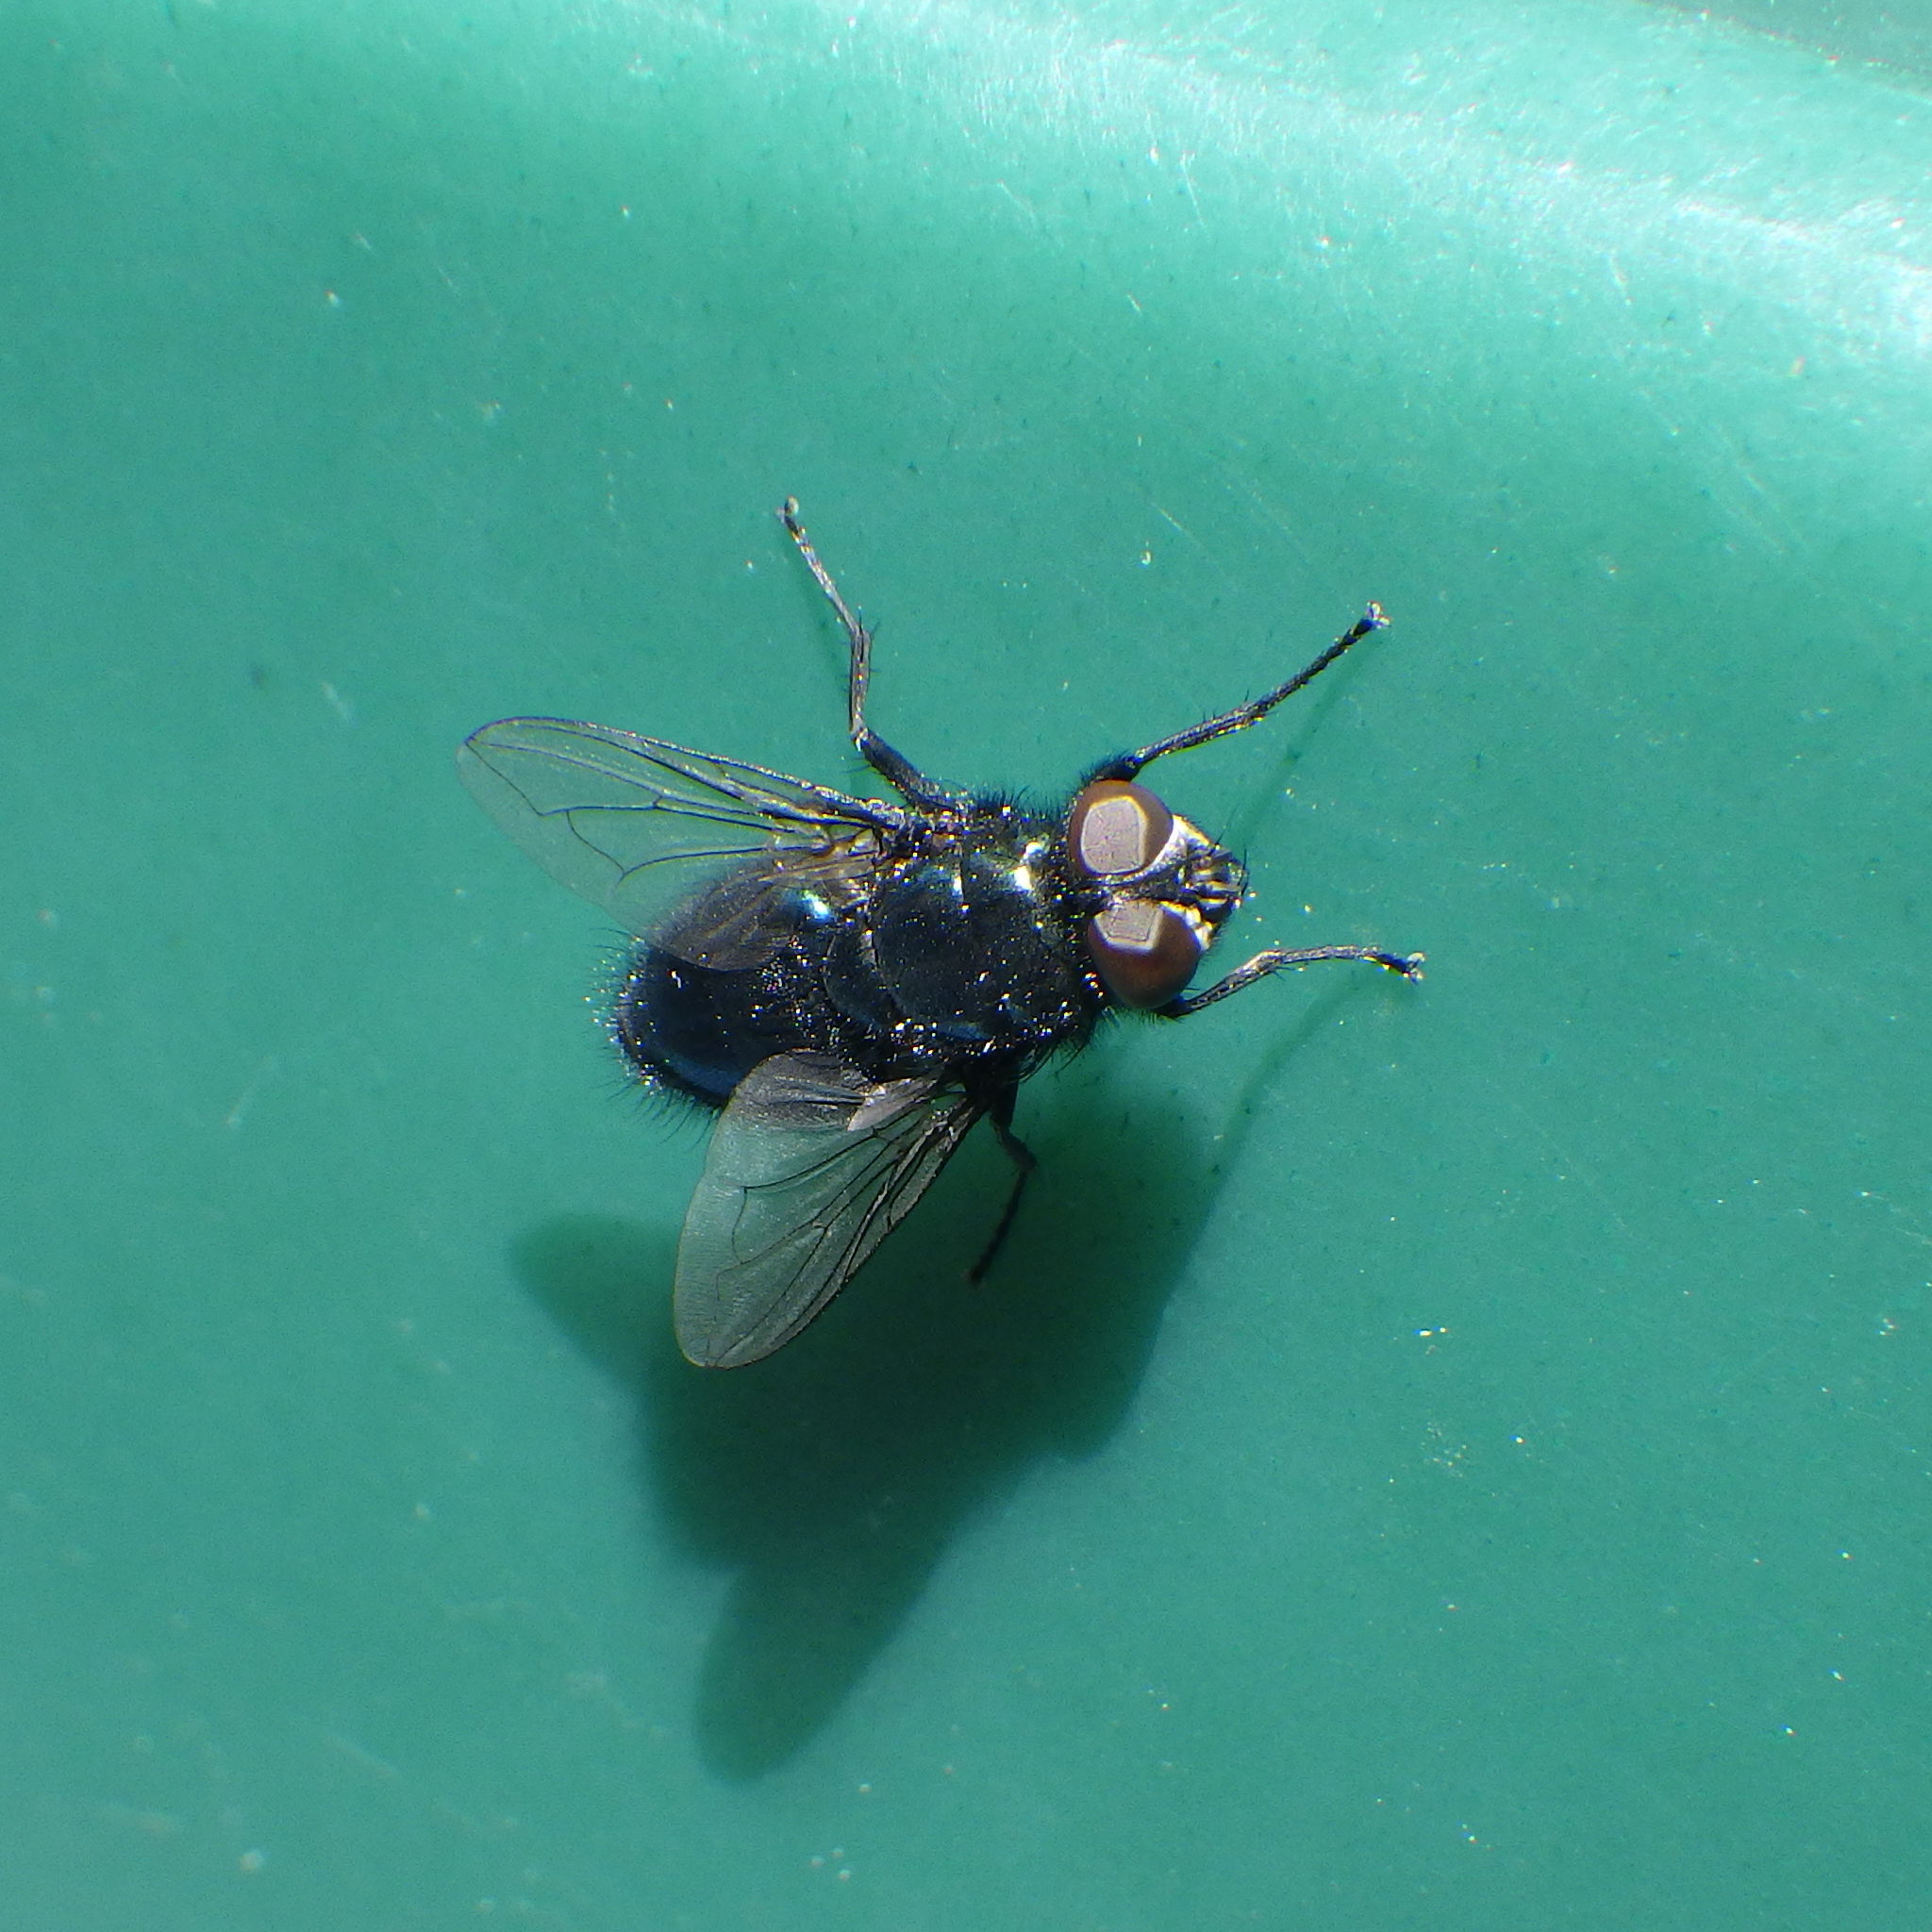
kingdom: Animalia
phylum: Arthropoda
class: Insecta
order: Diptera
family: Calliphoridae
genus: Protophormia
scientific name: Protophormia terraenovae
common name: Blackbottle
